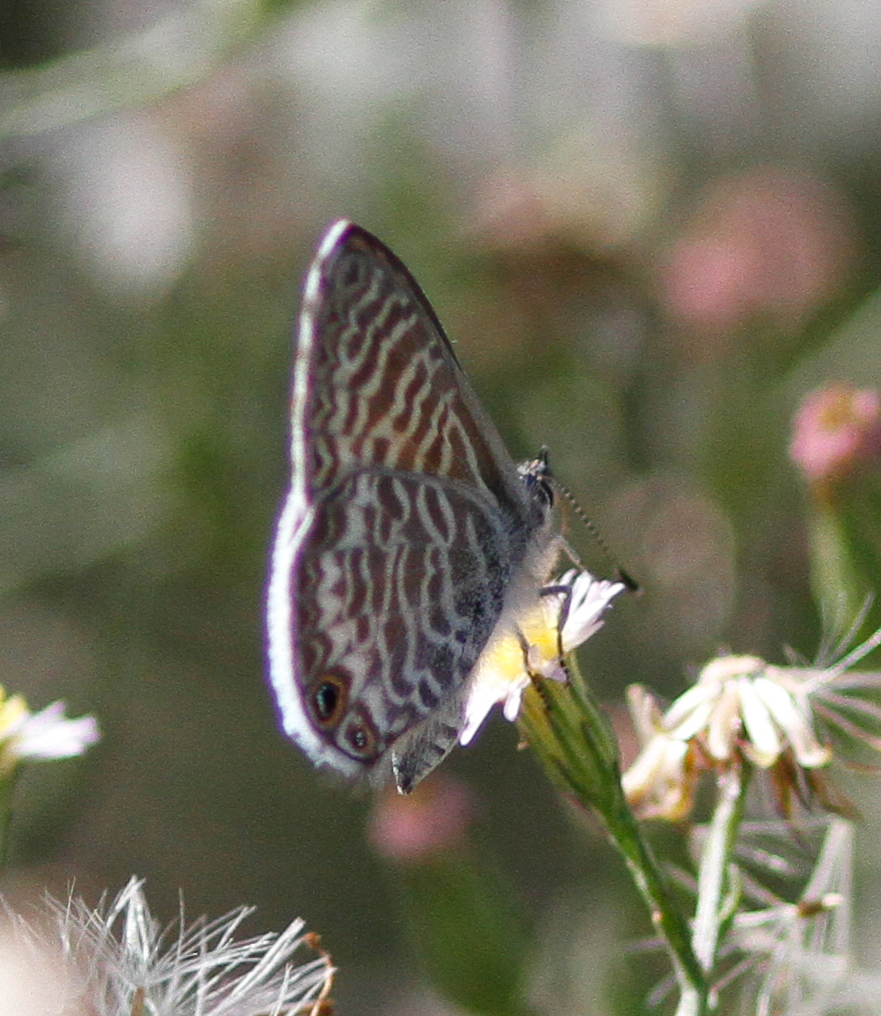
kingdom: Animalia
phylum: Arthropoda
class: Insecta
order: Lepidoptera
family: Lycaenidae
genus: Leptotes
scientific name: Leptotes marina
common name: Marine blue
